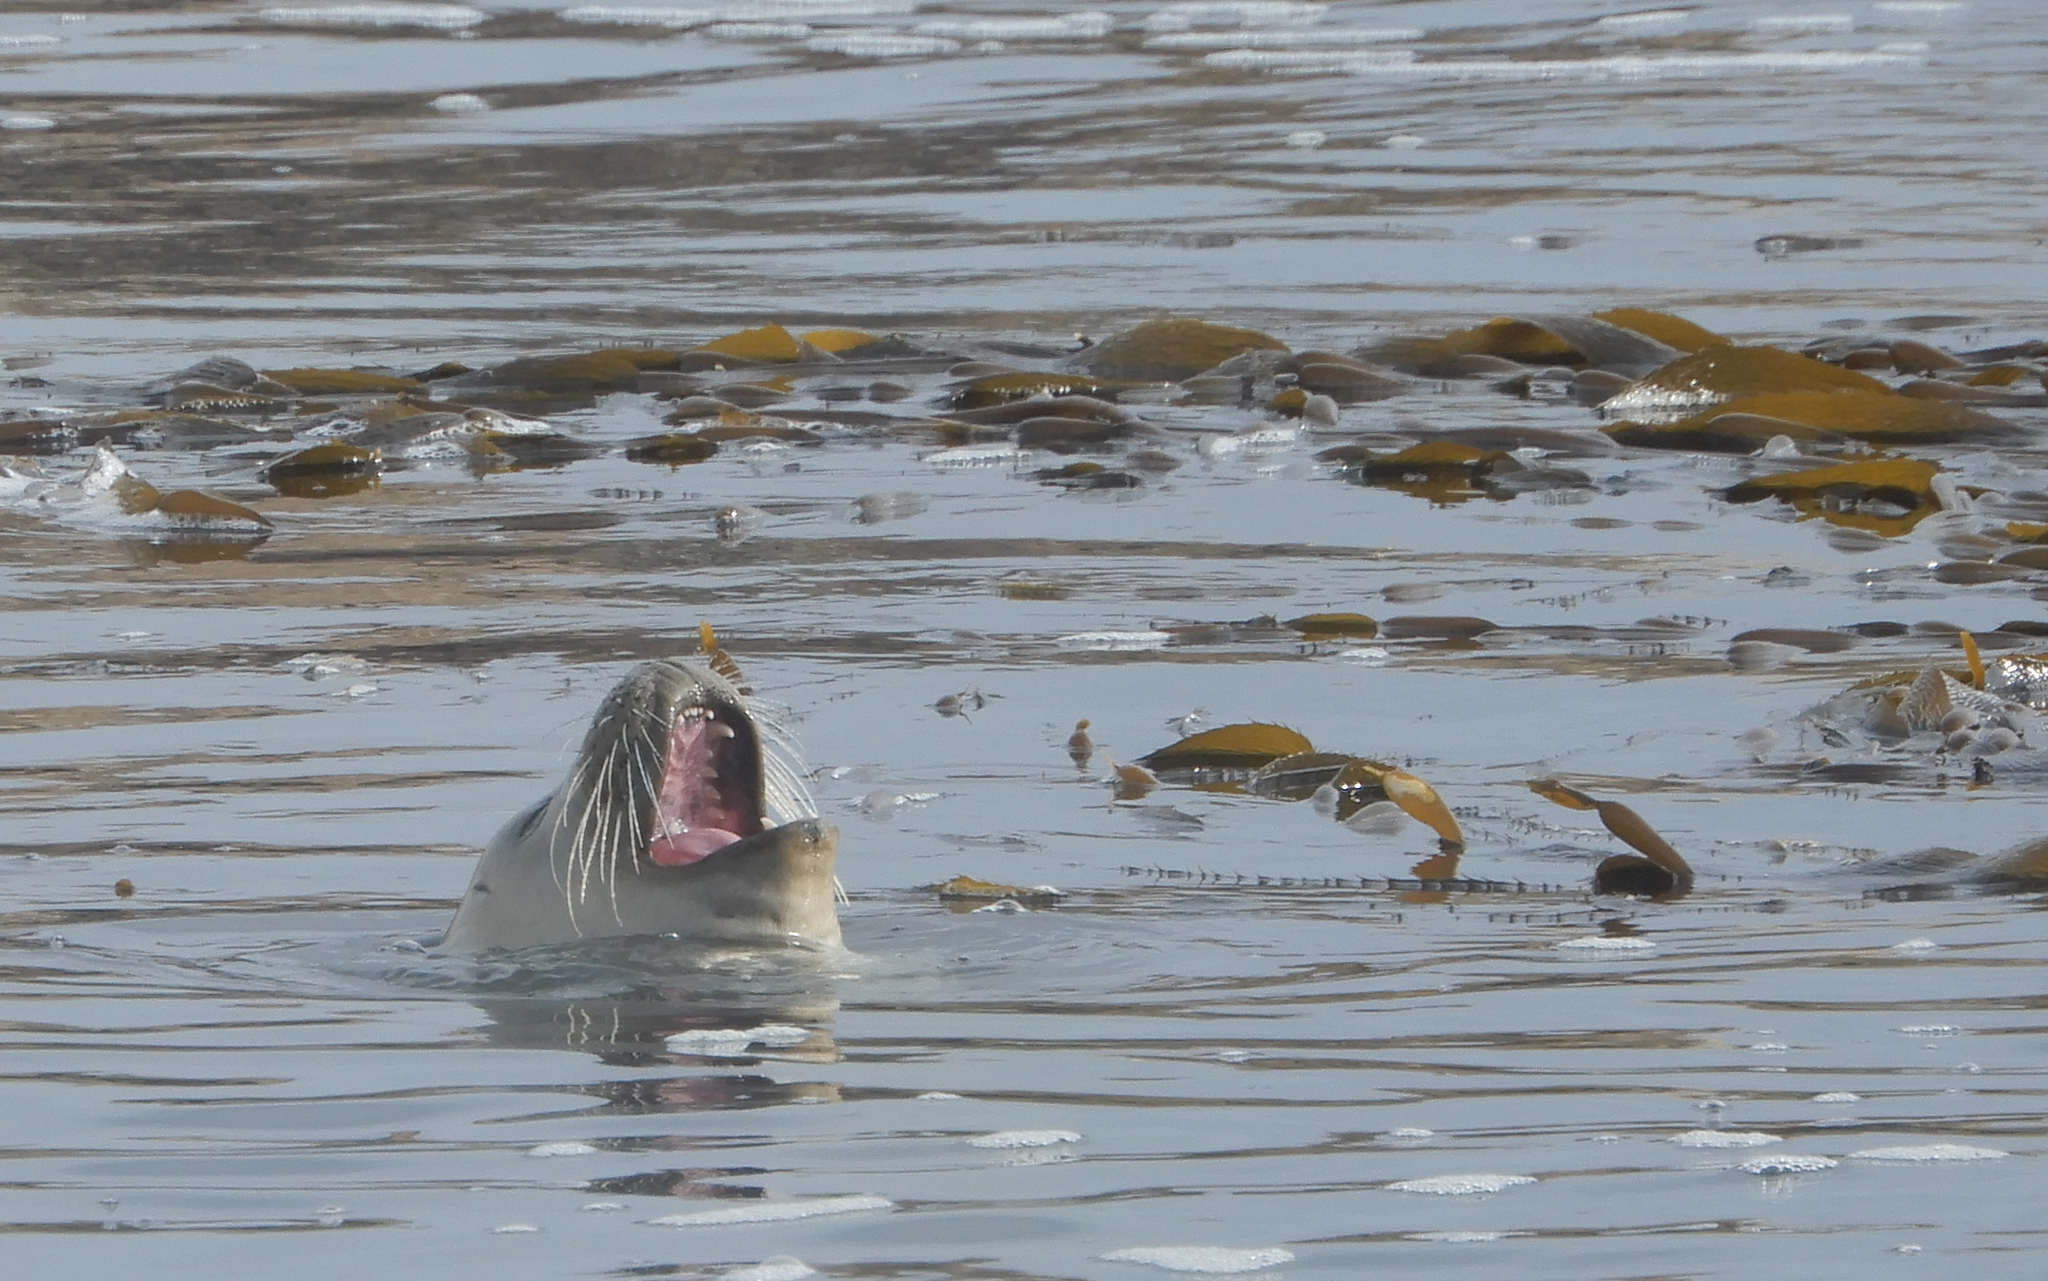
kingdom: Animalia
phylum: Chordata
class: Mammalia
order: Carnivora
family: Phocidae
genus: Phoca
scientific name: Phoca vitulina
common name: Harbor seal
